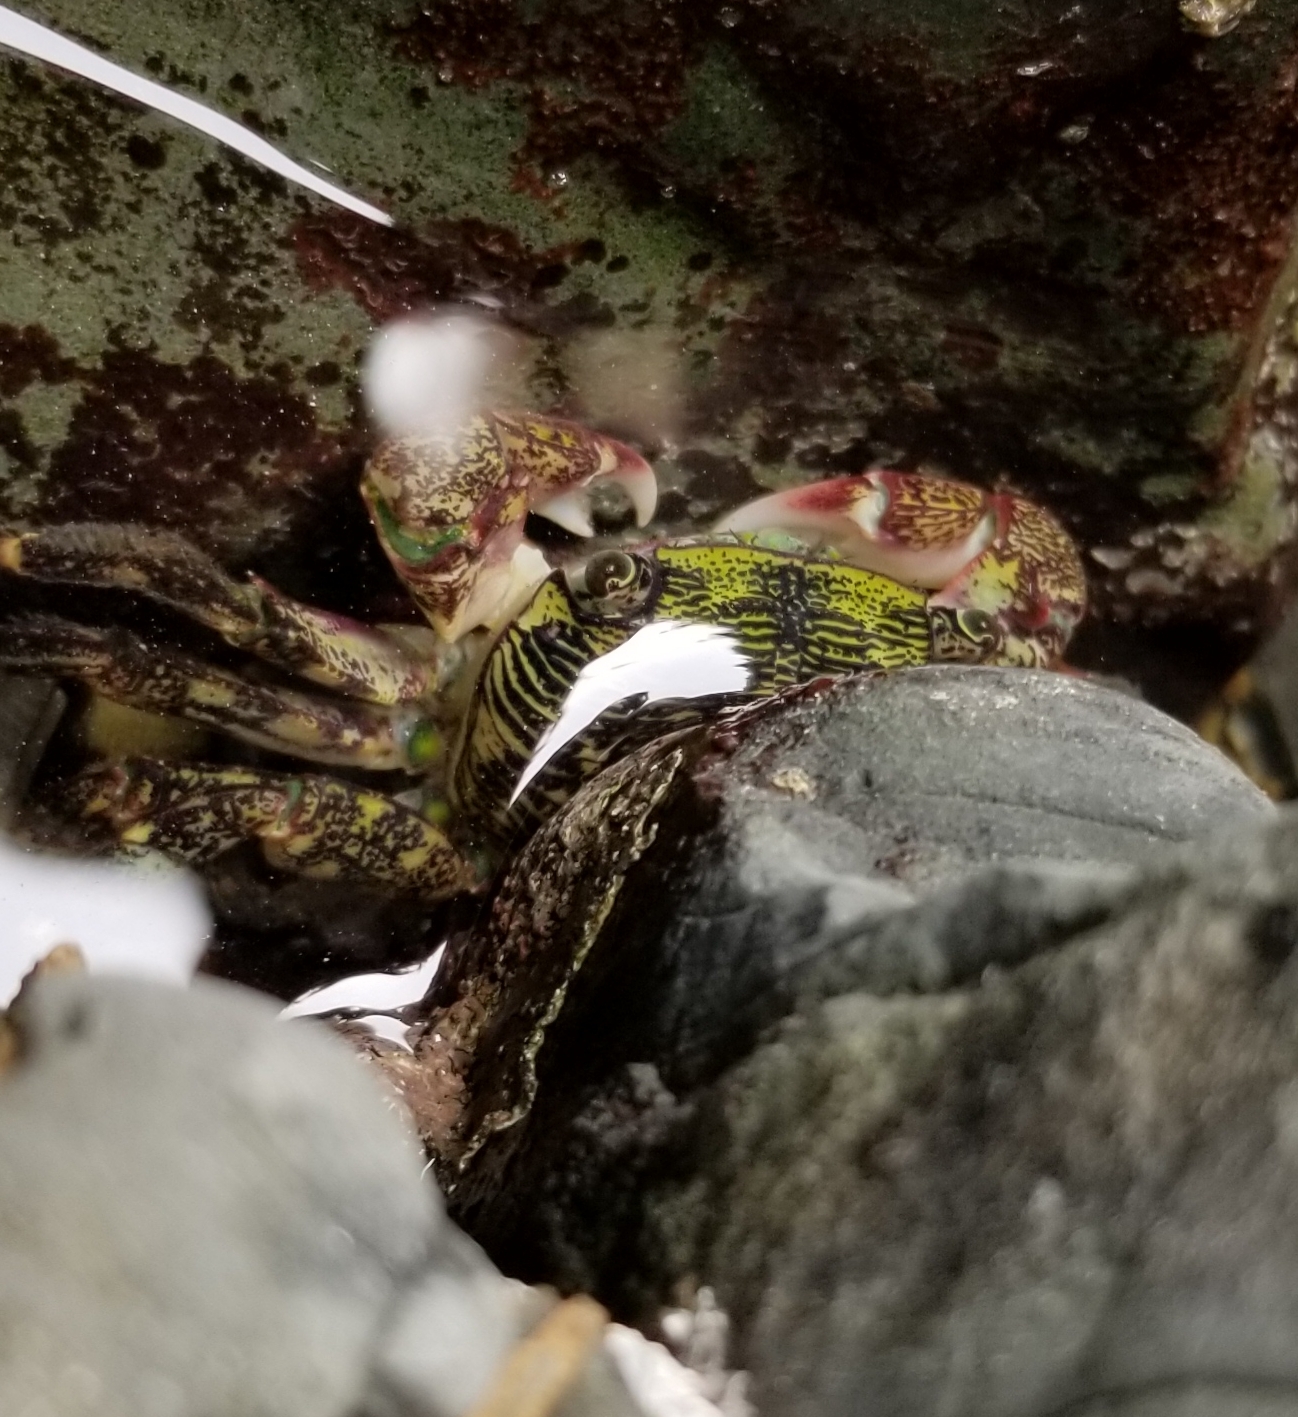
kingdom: Animalia
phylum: Arthropoda
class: Malacostraca
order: Decapoda
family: Grapsidae
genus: Pachygrapsus
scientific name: Pachygrapsus crassipes
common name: Striped shore crab
